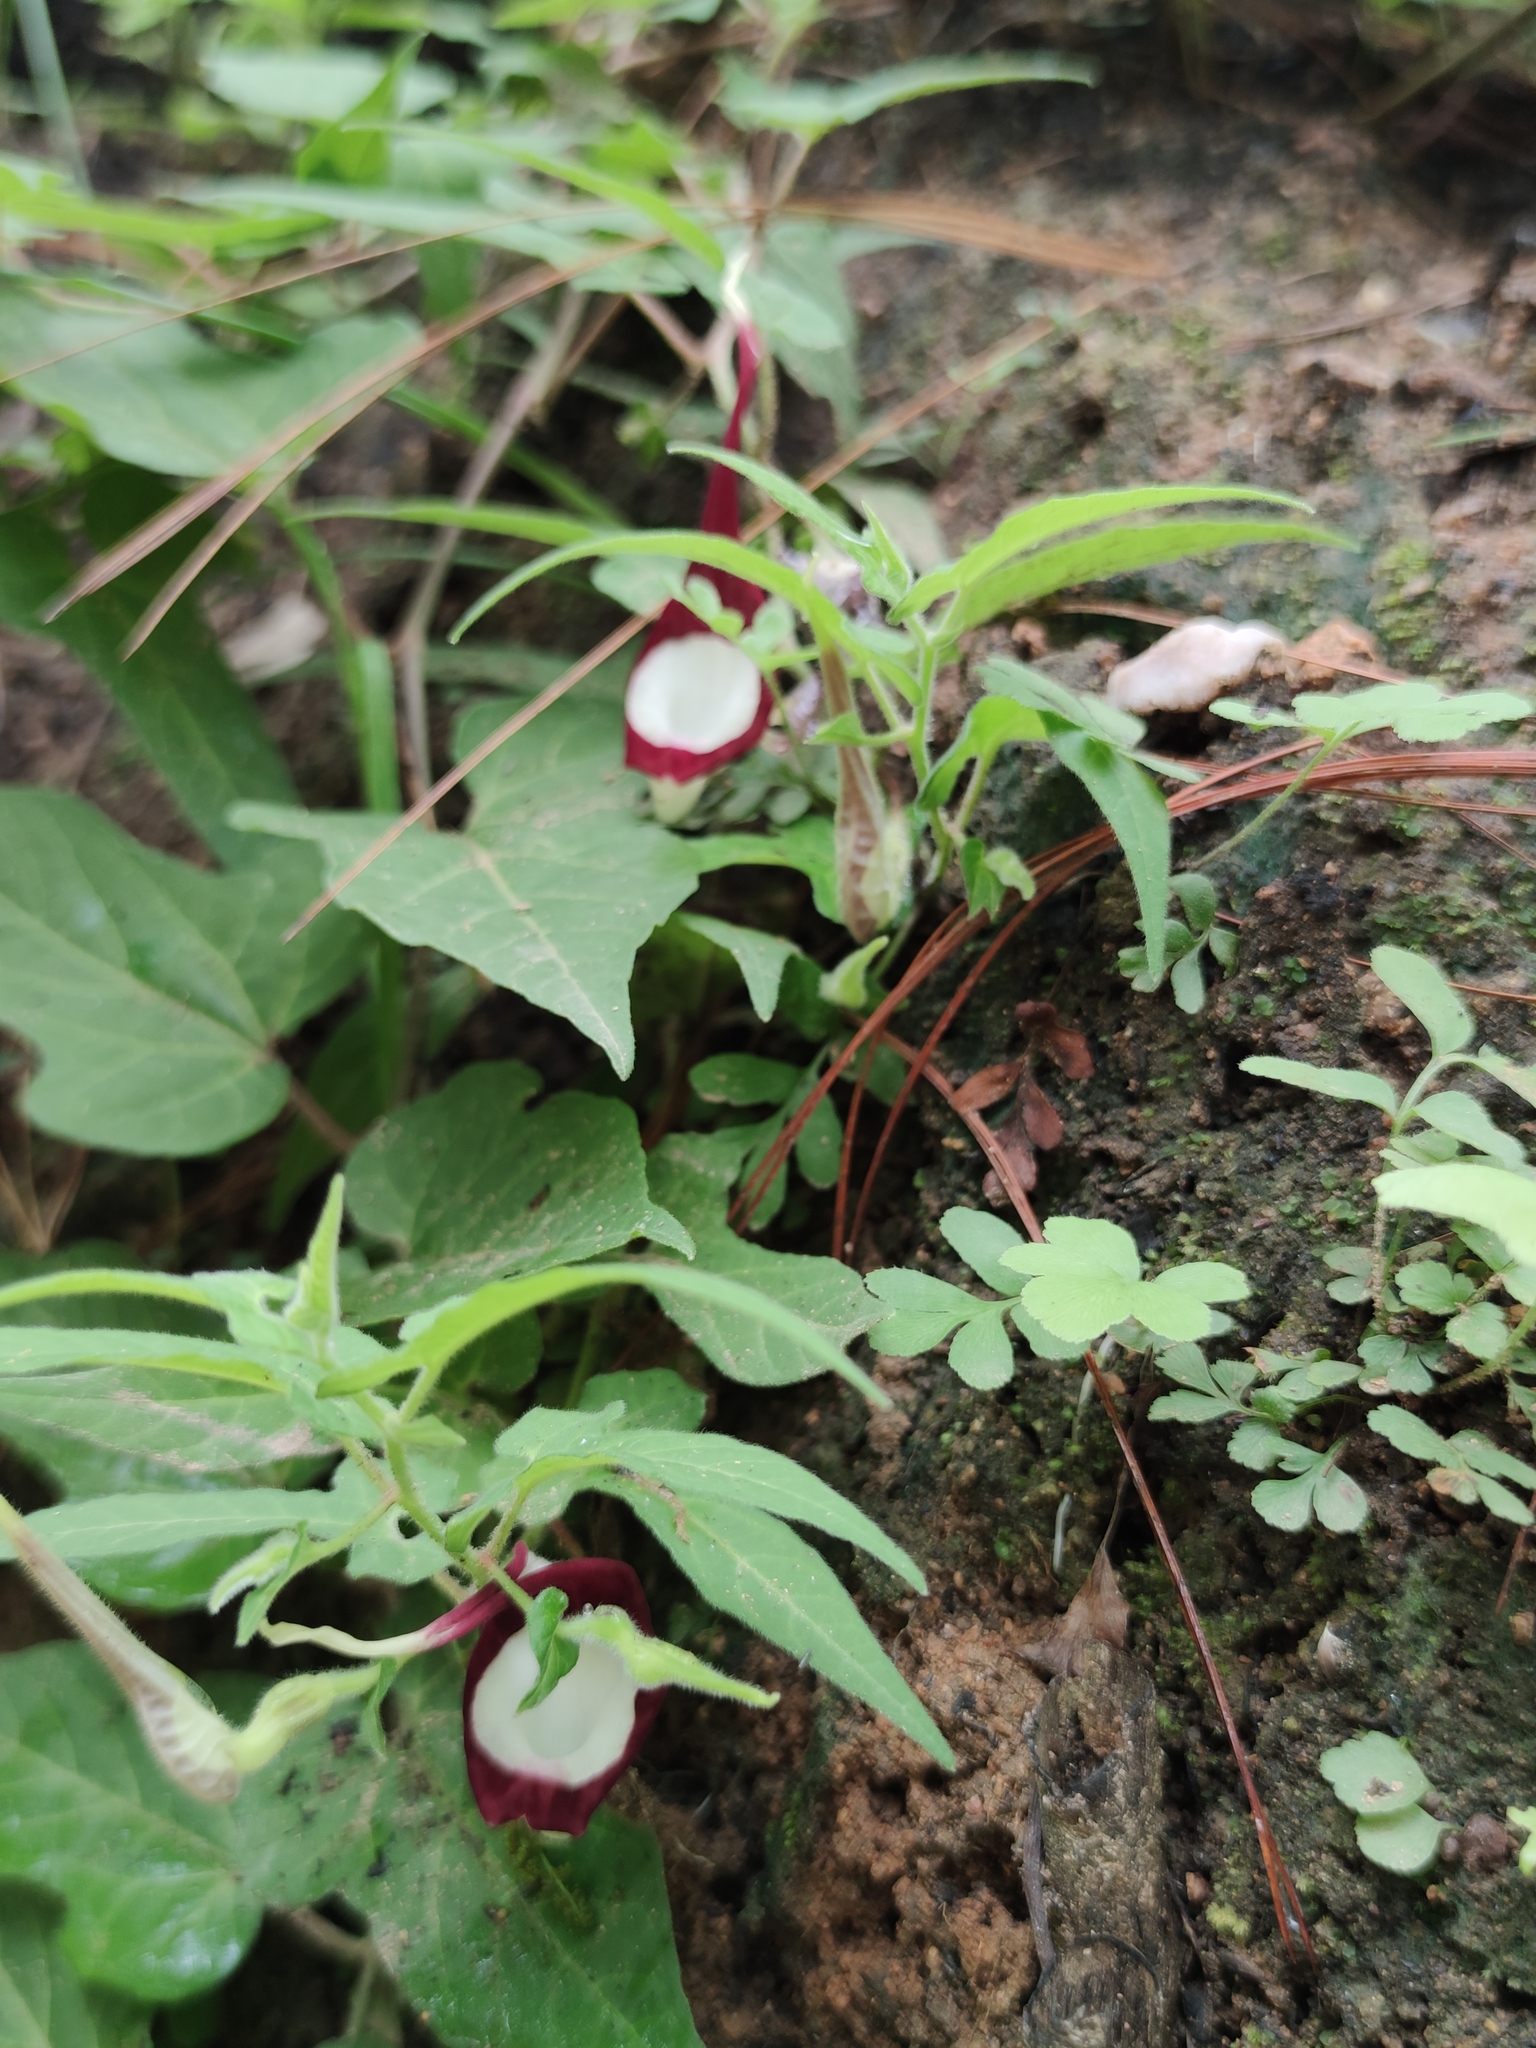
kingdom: Plantae
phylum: Tracheophyta
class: Magnoliopsida
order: Piperales
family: Aristolochiaceae
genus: Aristolochia
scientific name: Aristolochia nelsonii
